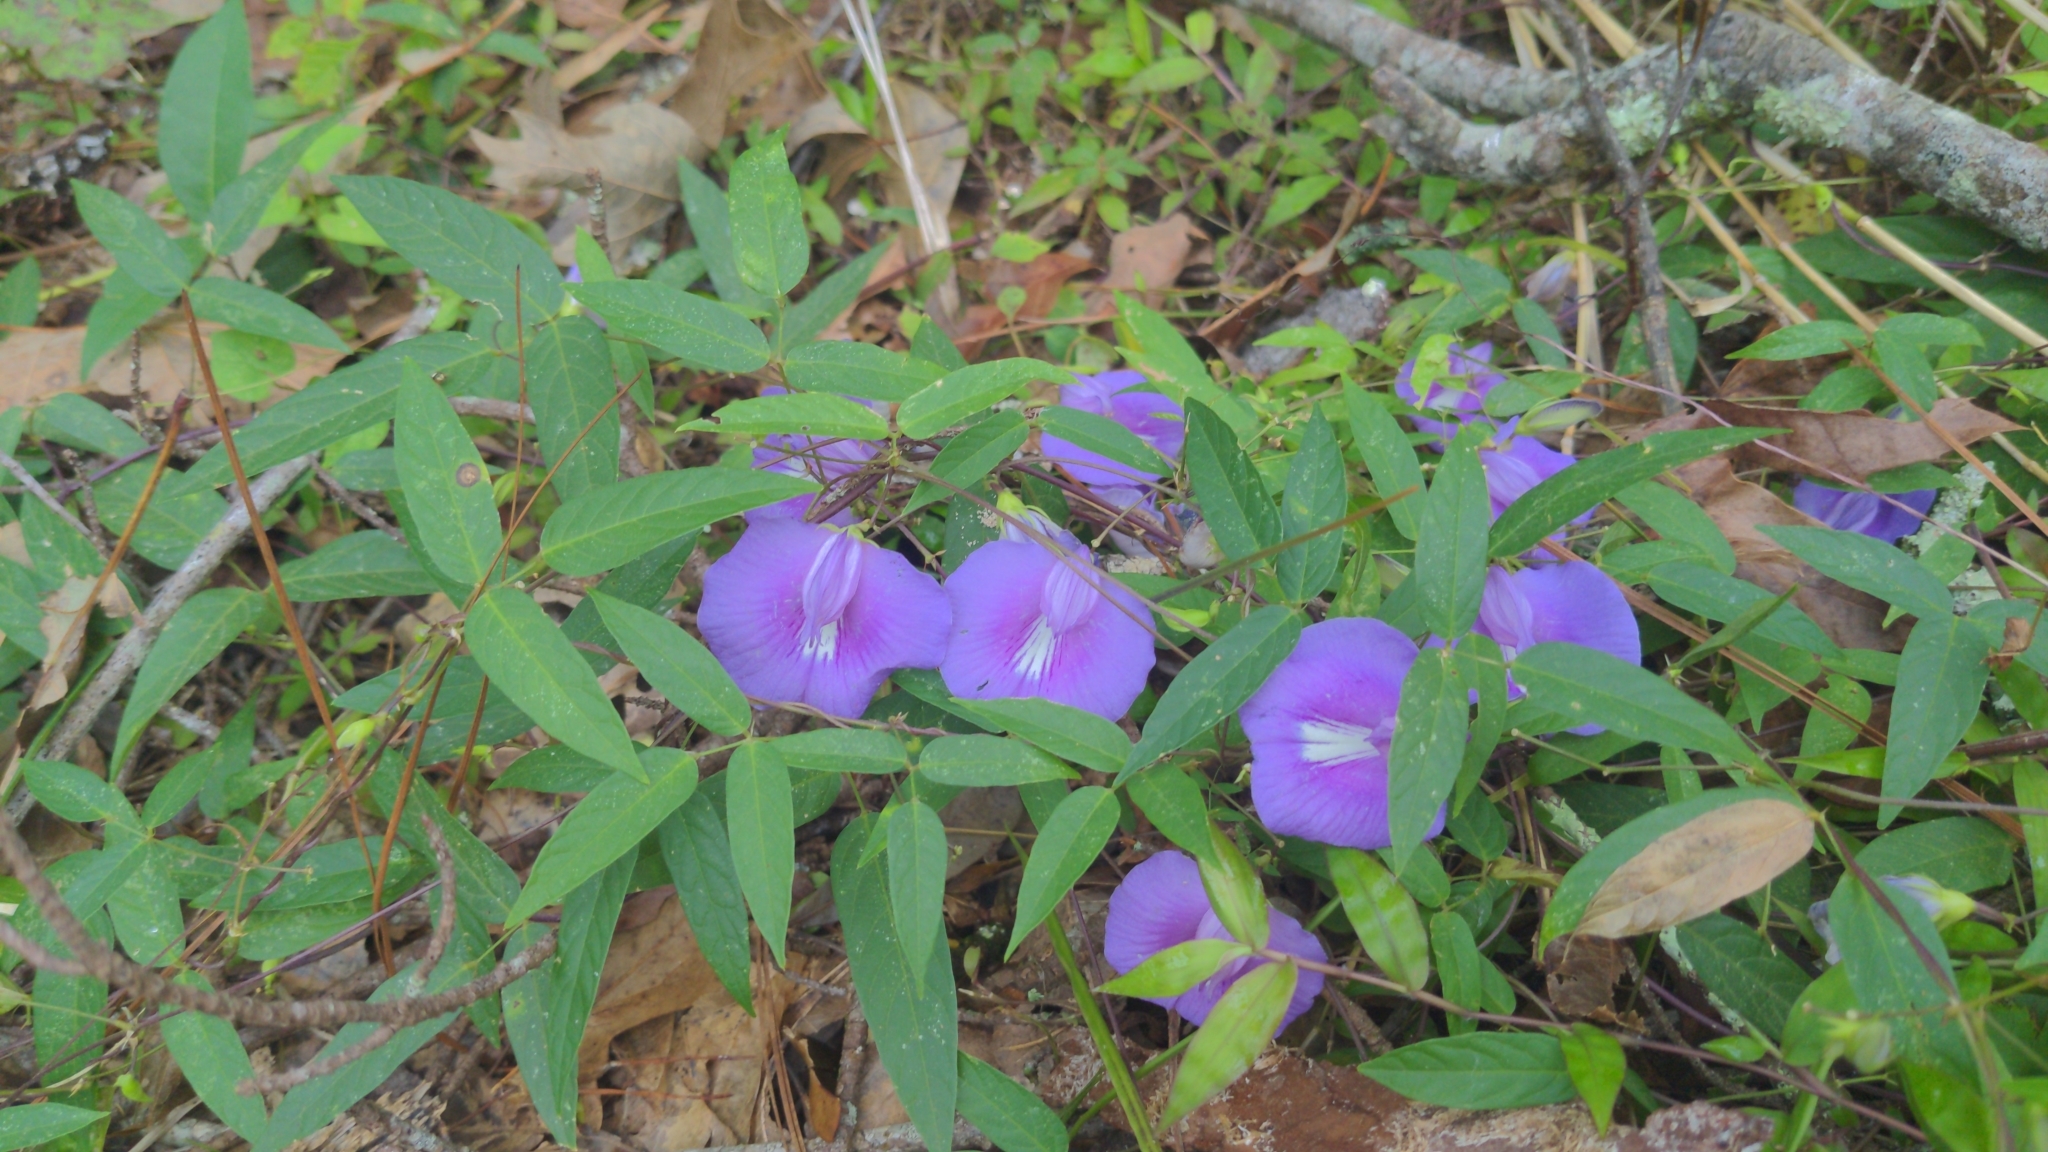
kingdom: Plantae
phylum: Tracheophyta
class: Magnoliopsida
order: Fabales
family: Fabaceae
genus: Centrosema
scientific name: Centrosema virginianum
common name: Butterfly-pea
